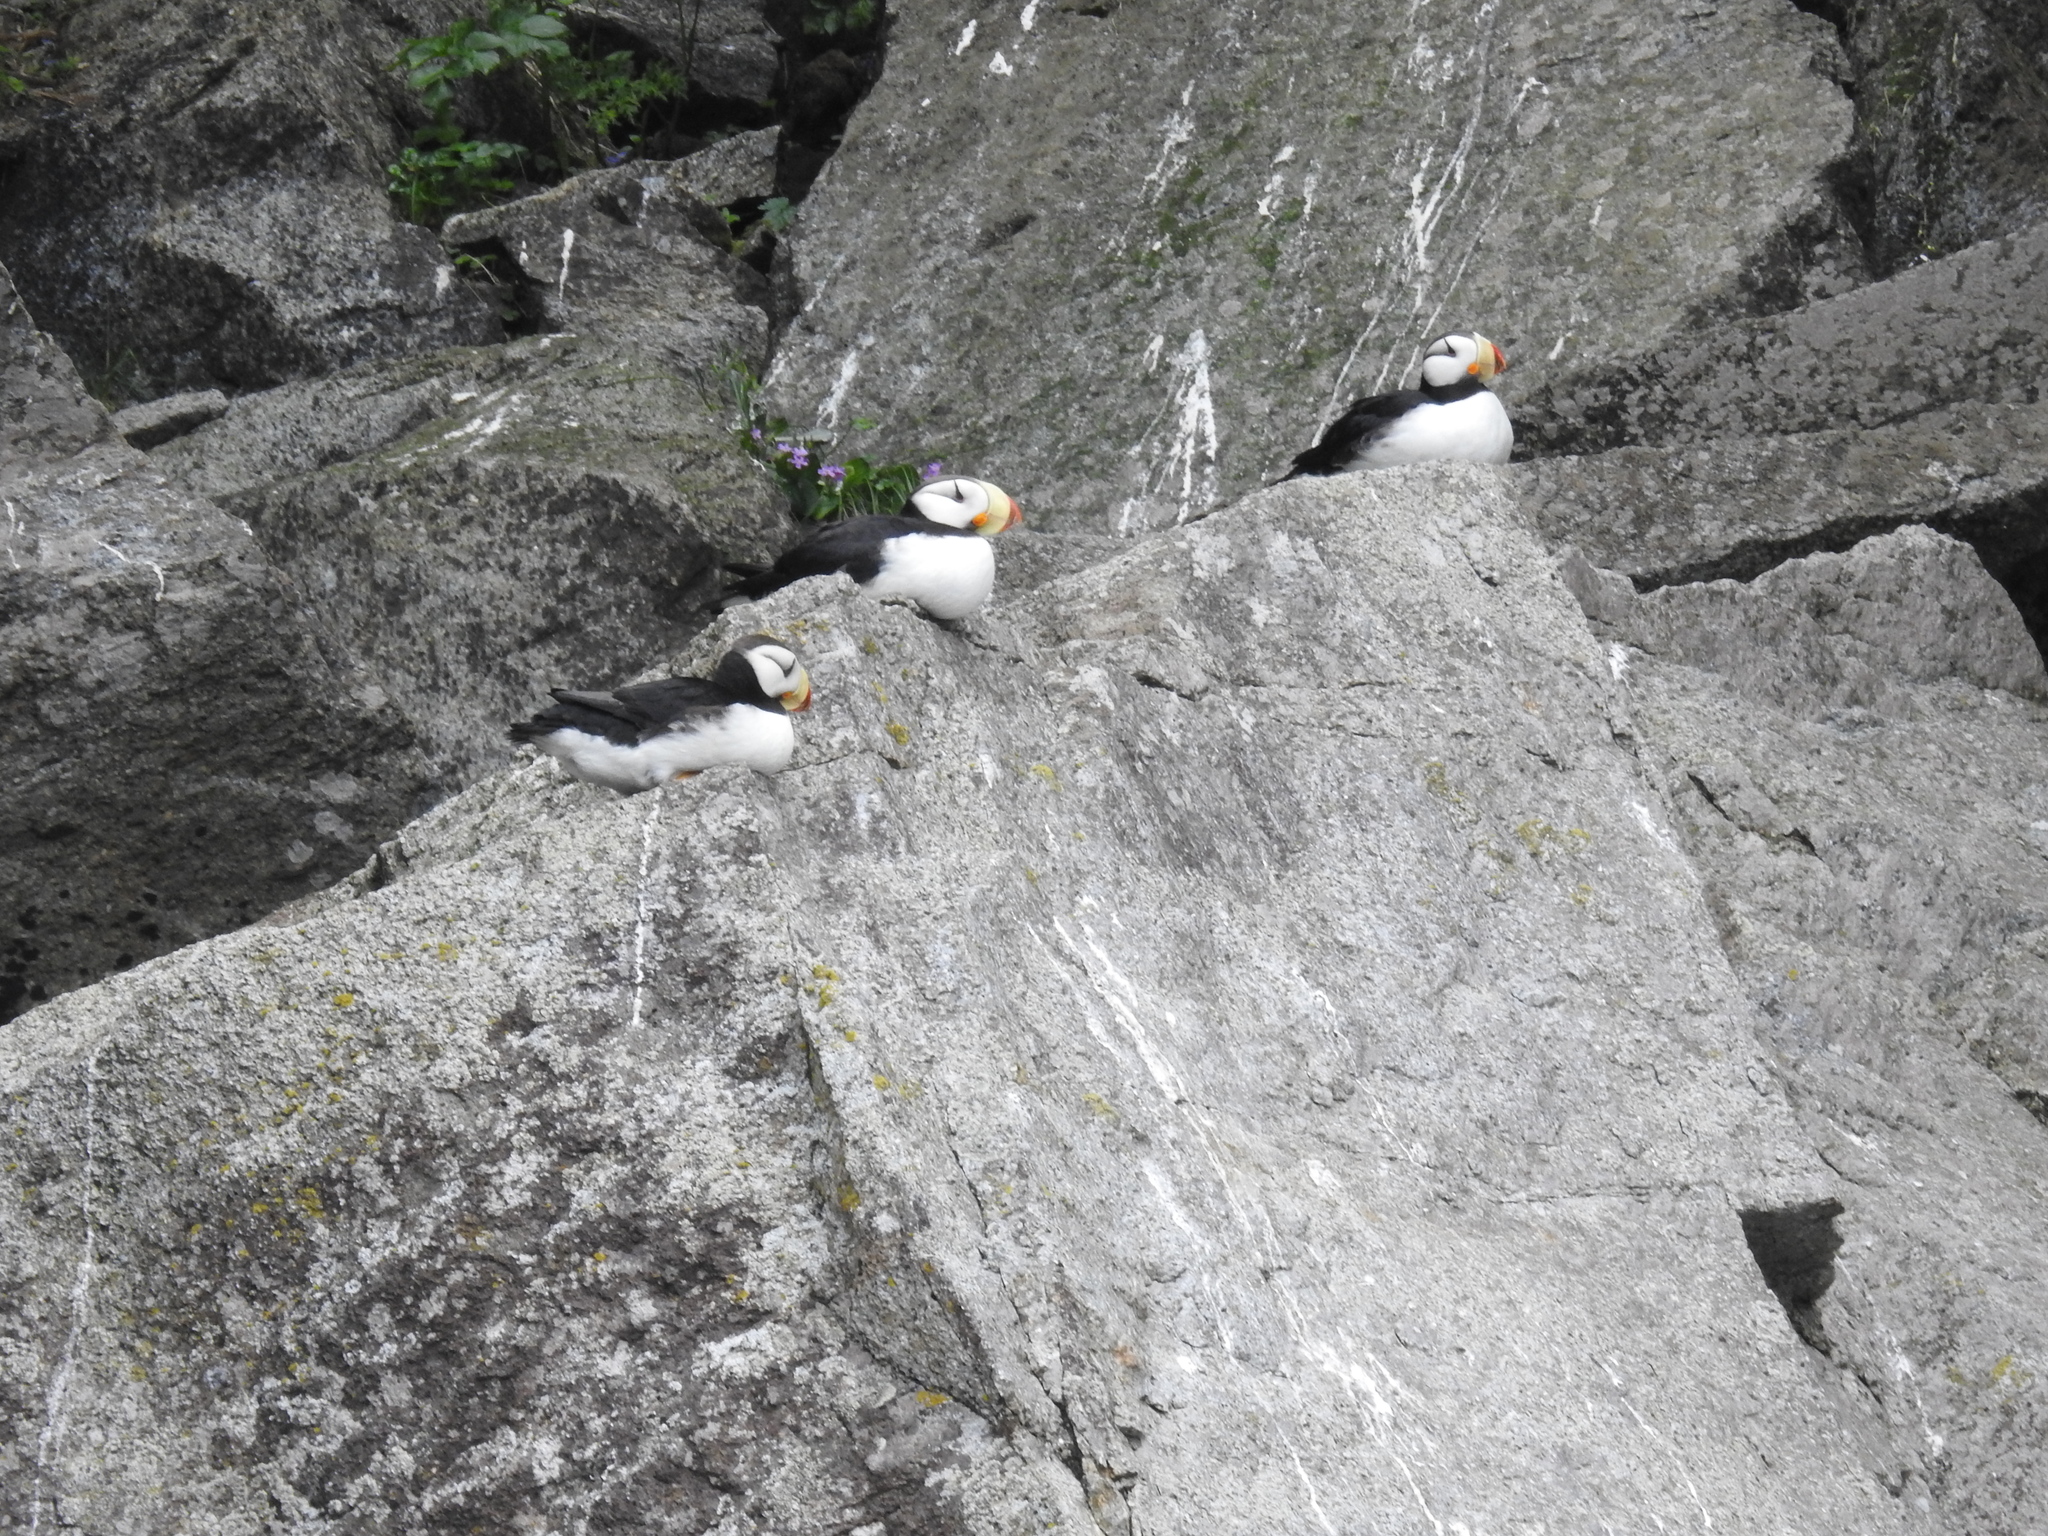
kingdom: Animalia
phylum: Chordata
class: Aves
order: Charadriiformes
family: Alcidae
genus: Fratercula
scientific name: Fratercula corniculata
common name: Horned puffin
